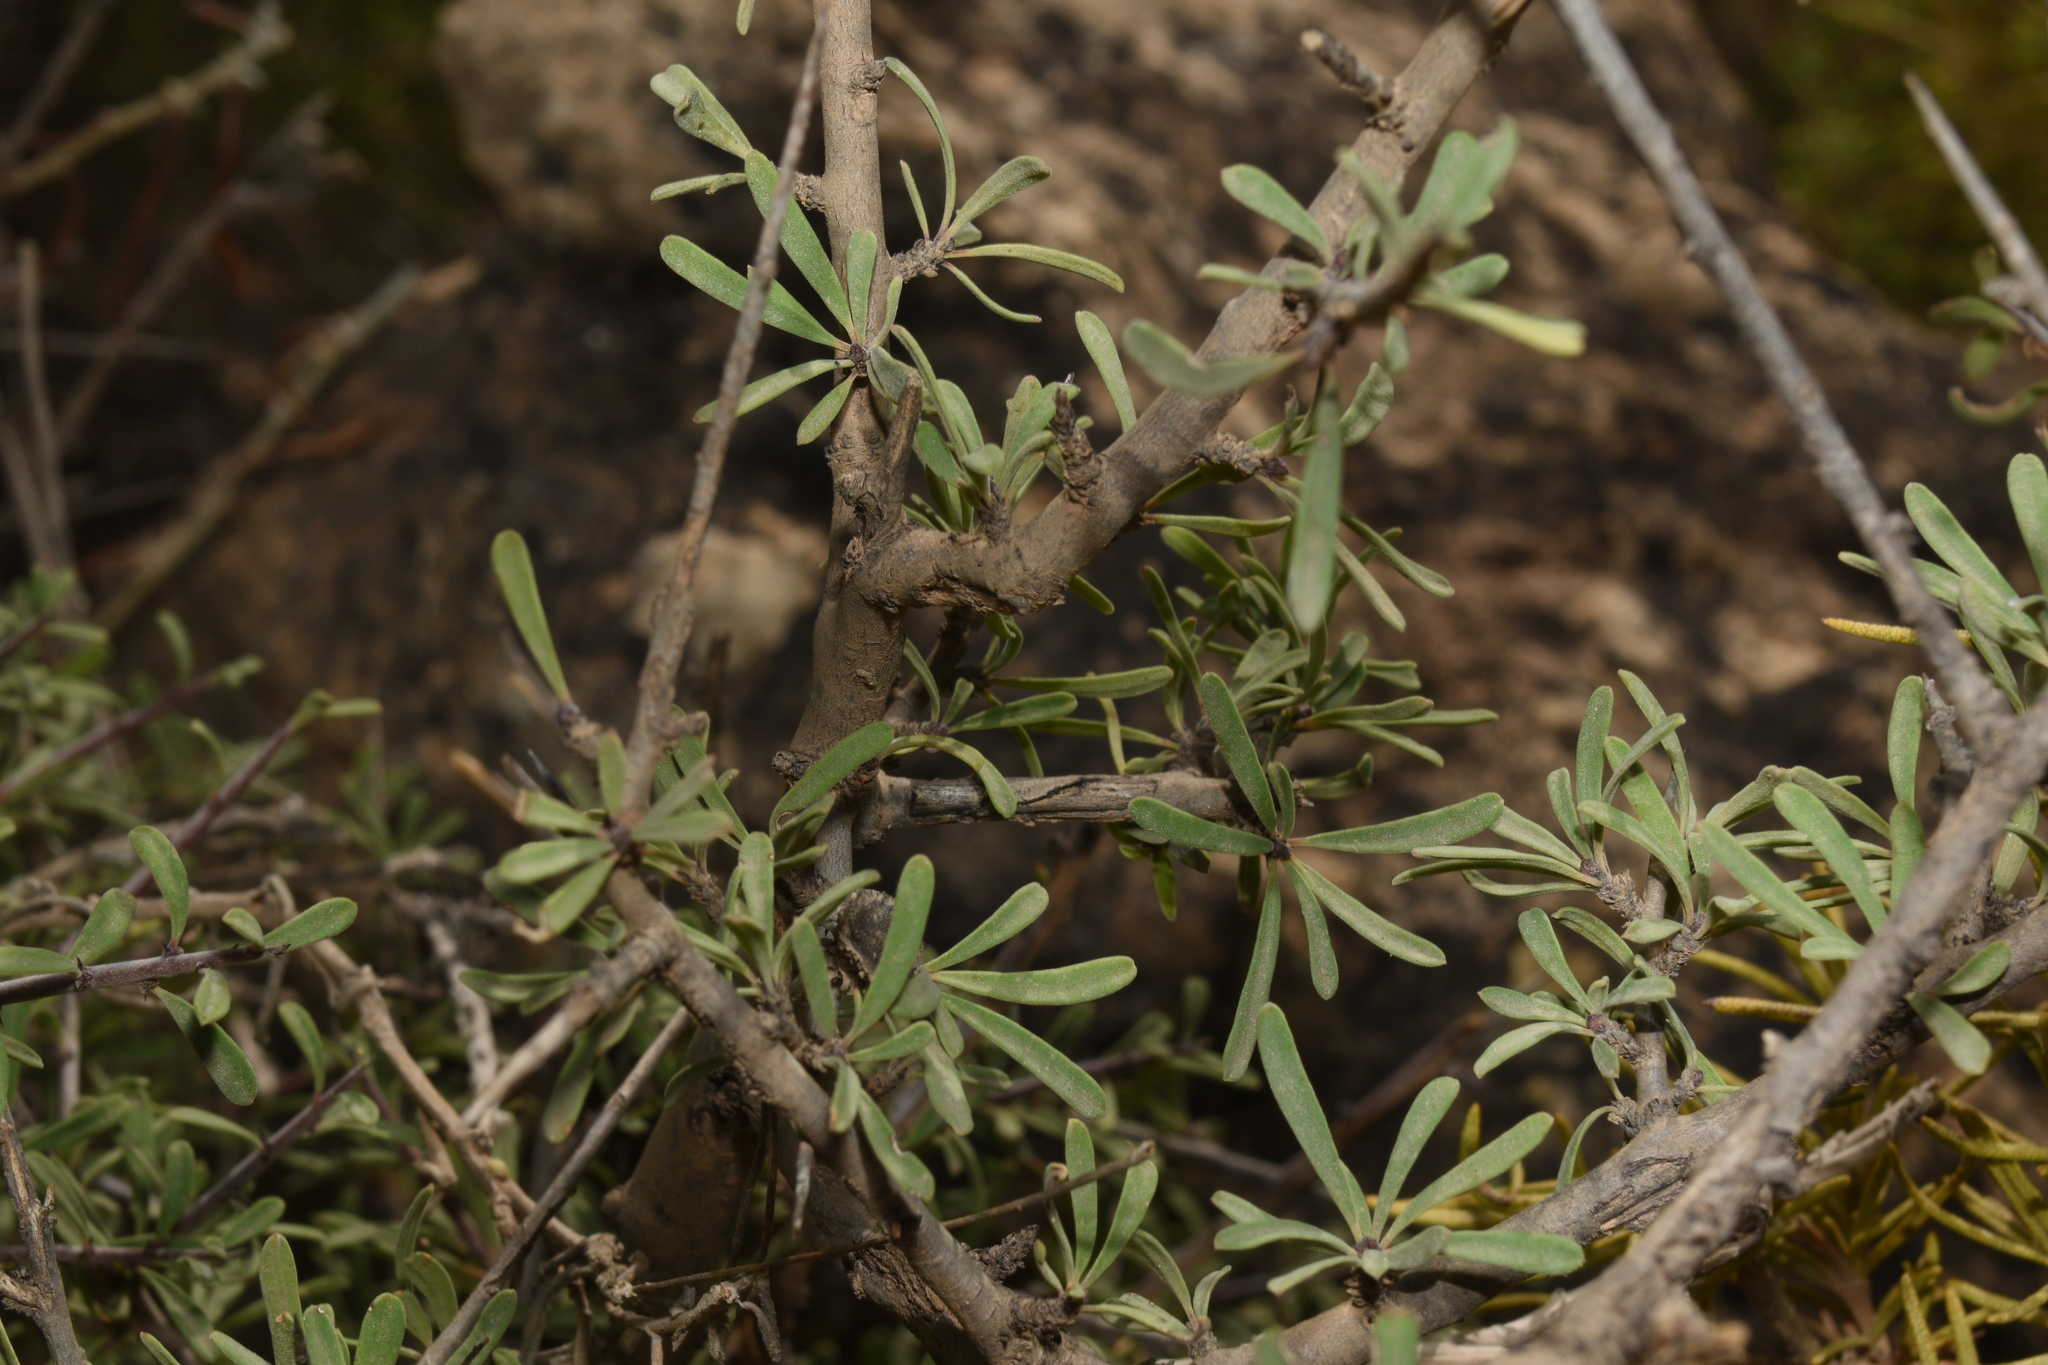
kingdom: Plantae
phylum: Tracheophyta
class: Magnoliopsida
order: Rosales
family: Rhamnaceae
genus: Rhamnus
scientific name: Rhamnus lycioides
